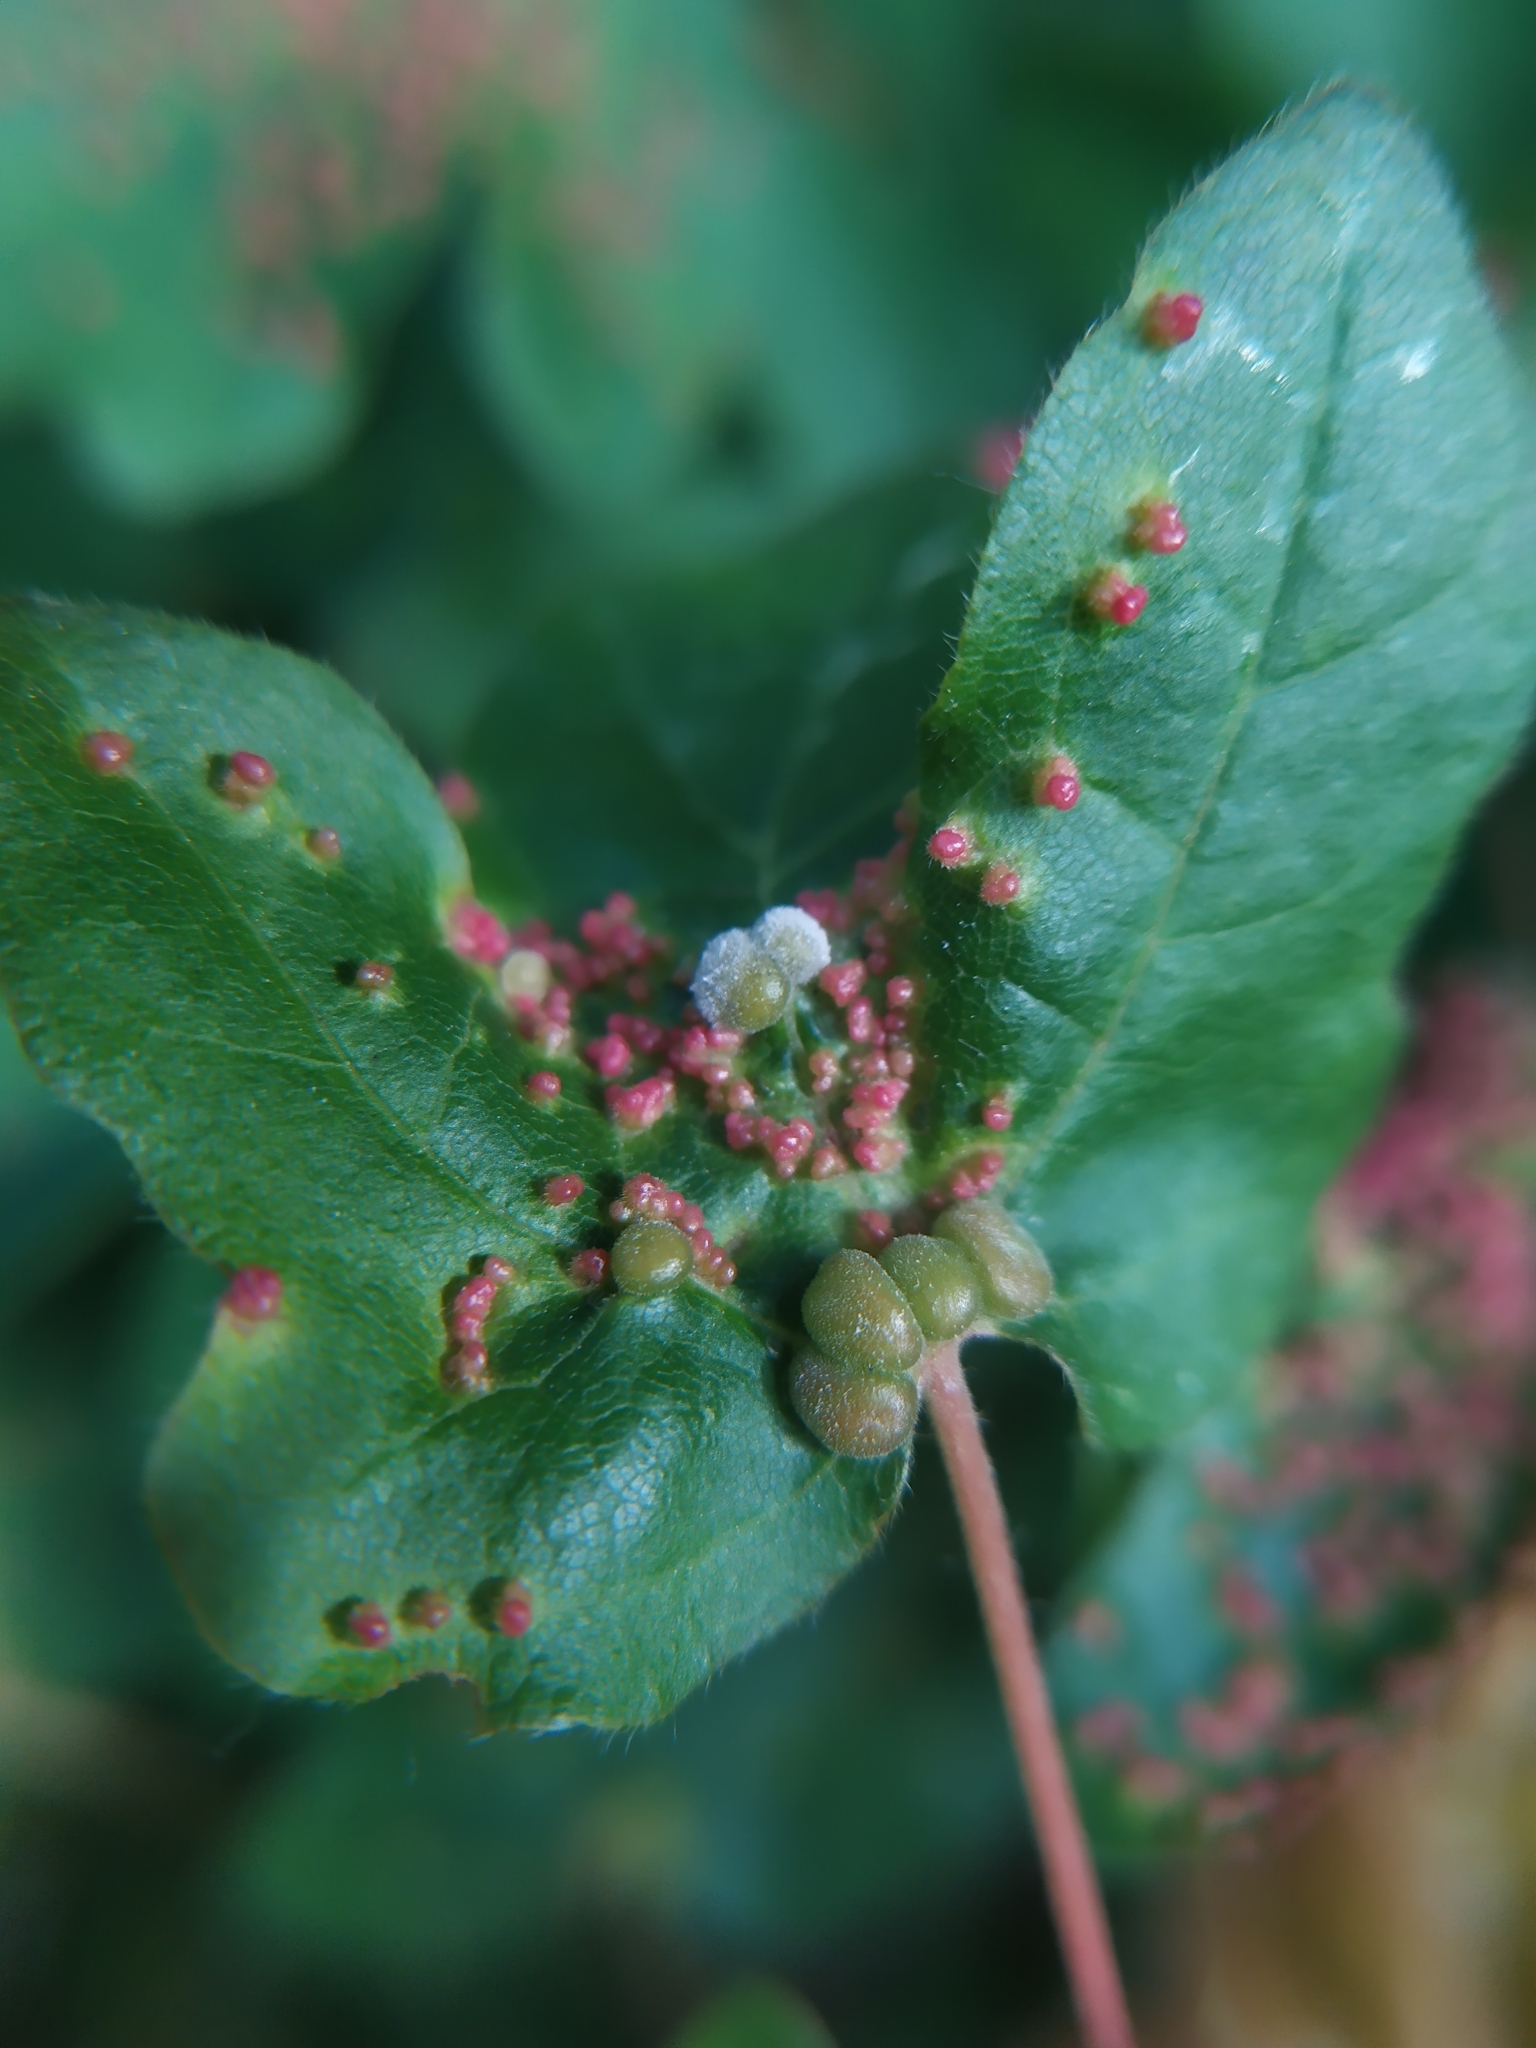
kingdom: Animalia
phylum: Arthropoda
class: Arachnida
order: Trombidiformes
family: Eriophyidae
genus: Aceria
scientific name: Aceria macrochelus
